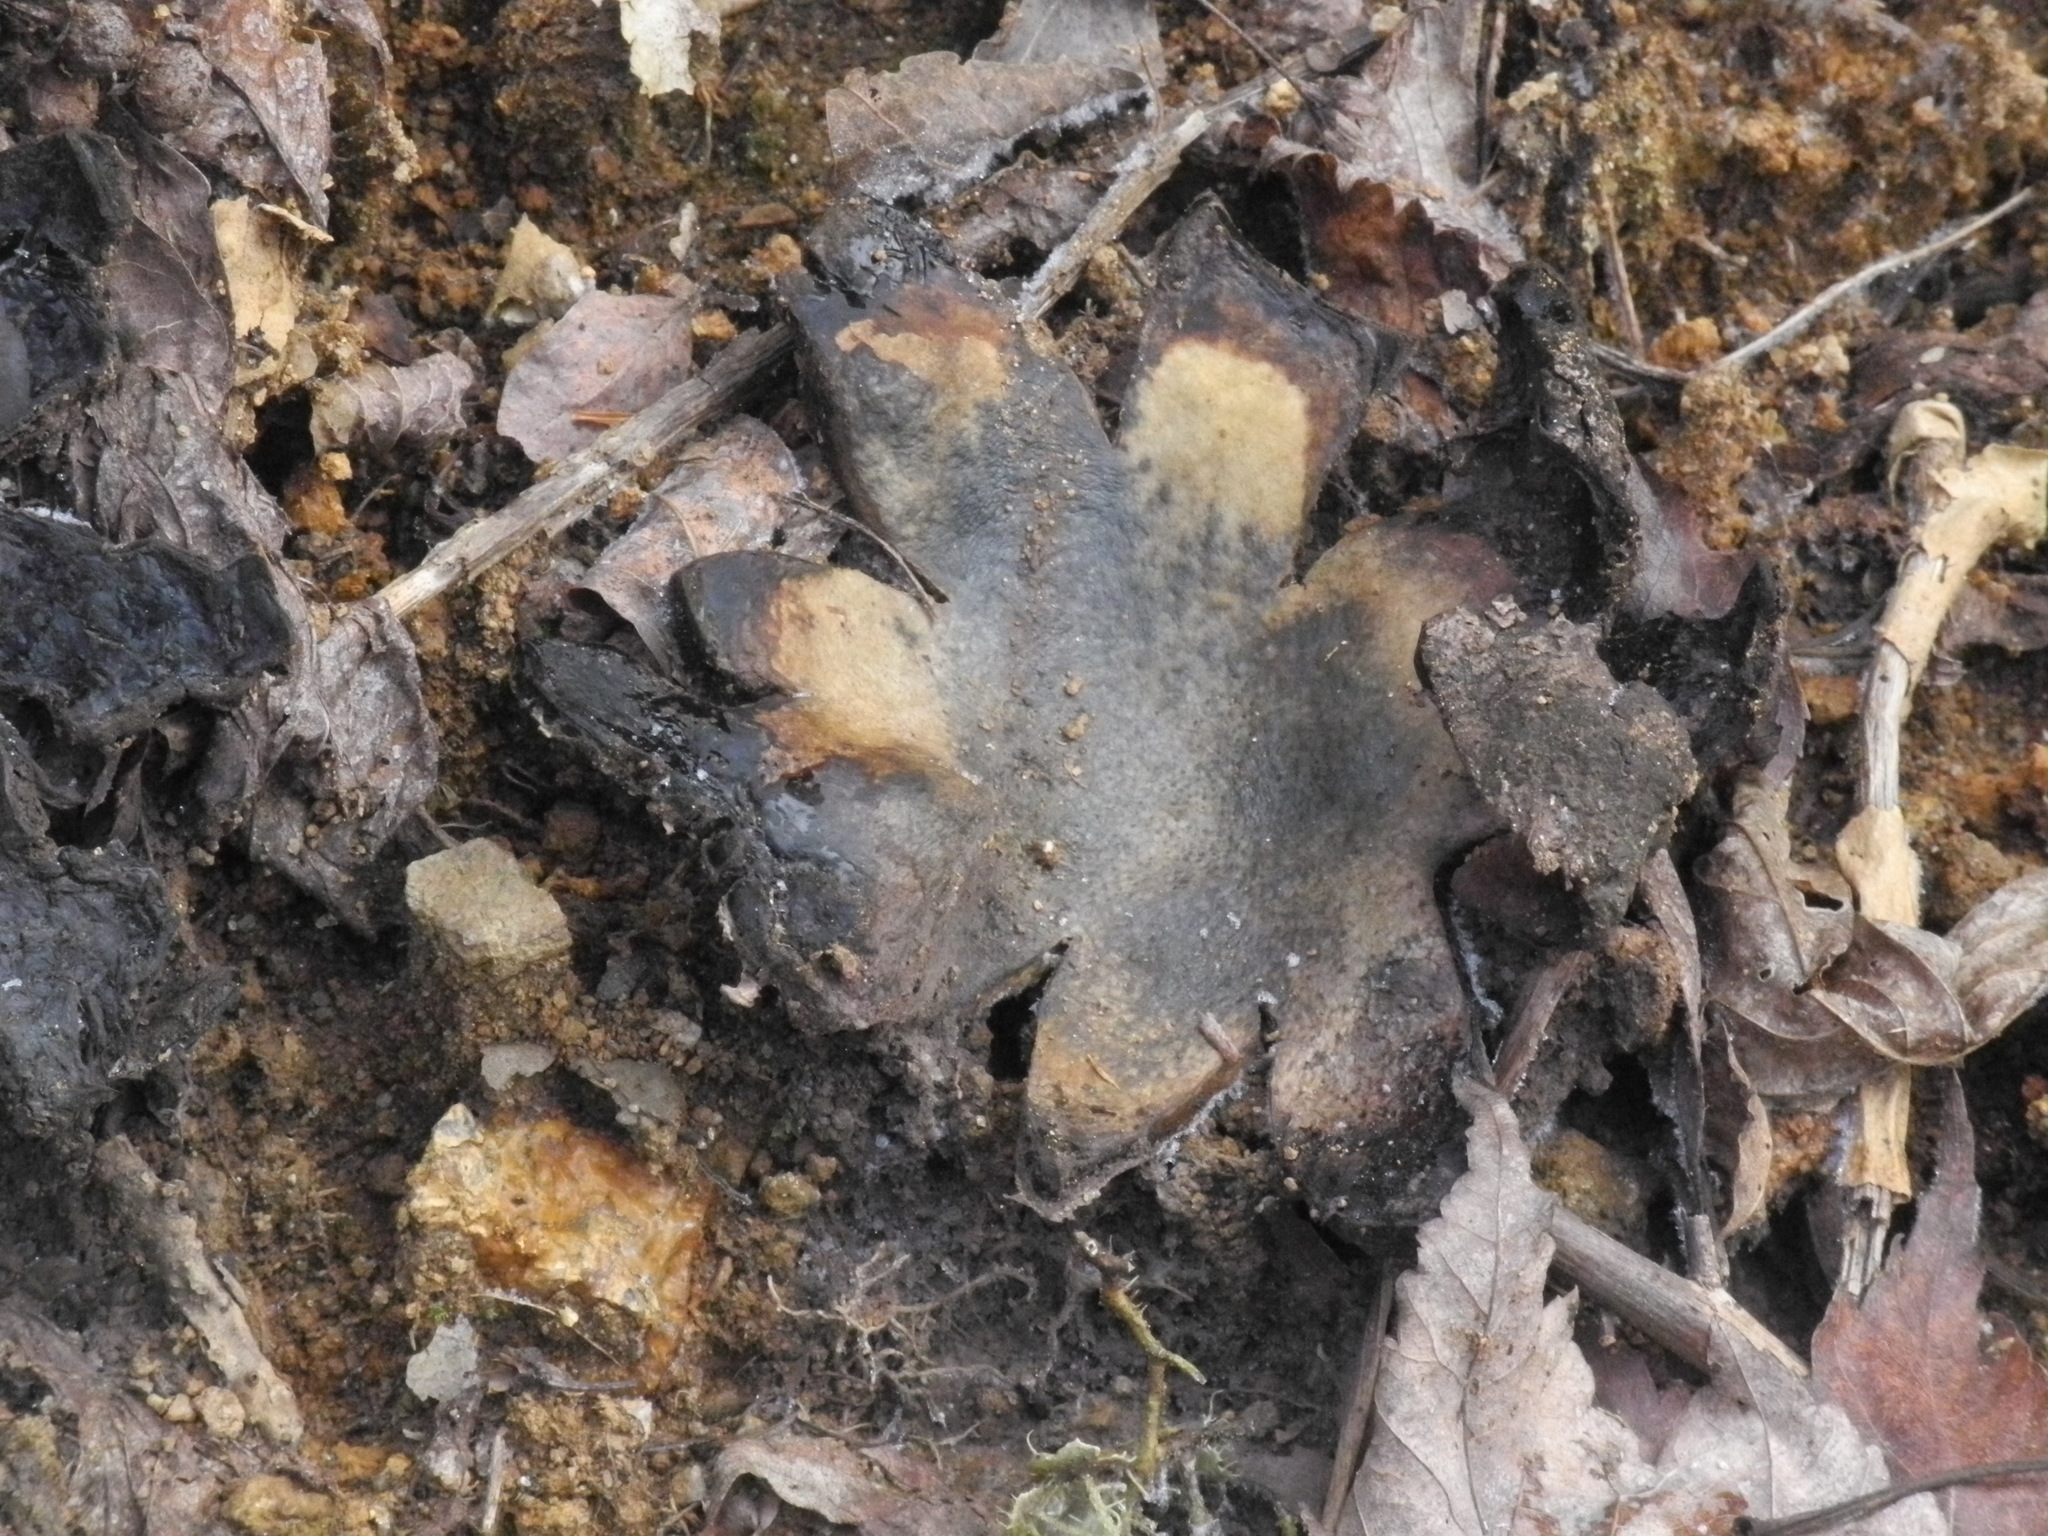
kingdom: Fungi
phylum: Basidiomycota
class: Agaricomycetes
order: Boletales
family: Sclerodermataceae
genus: Scleroderma
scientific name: Scleroderma polyrhizum
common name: Many-rooted earthball
